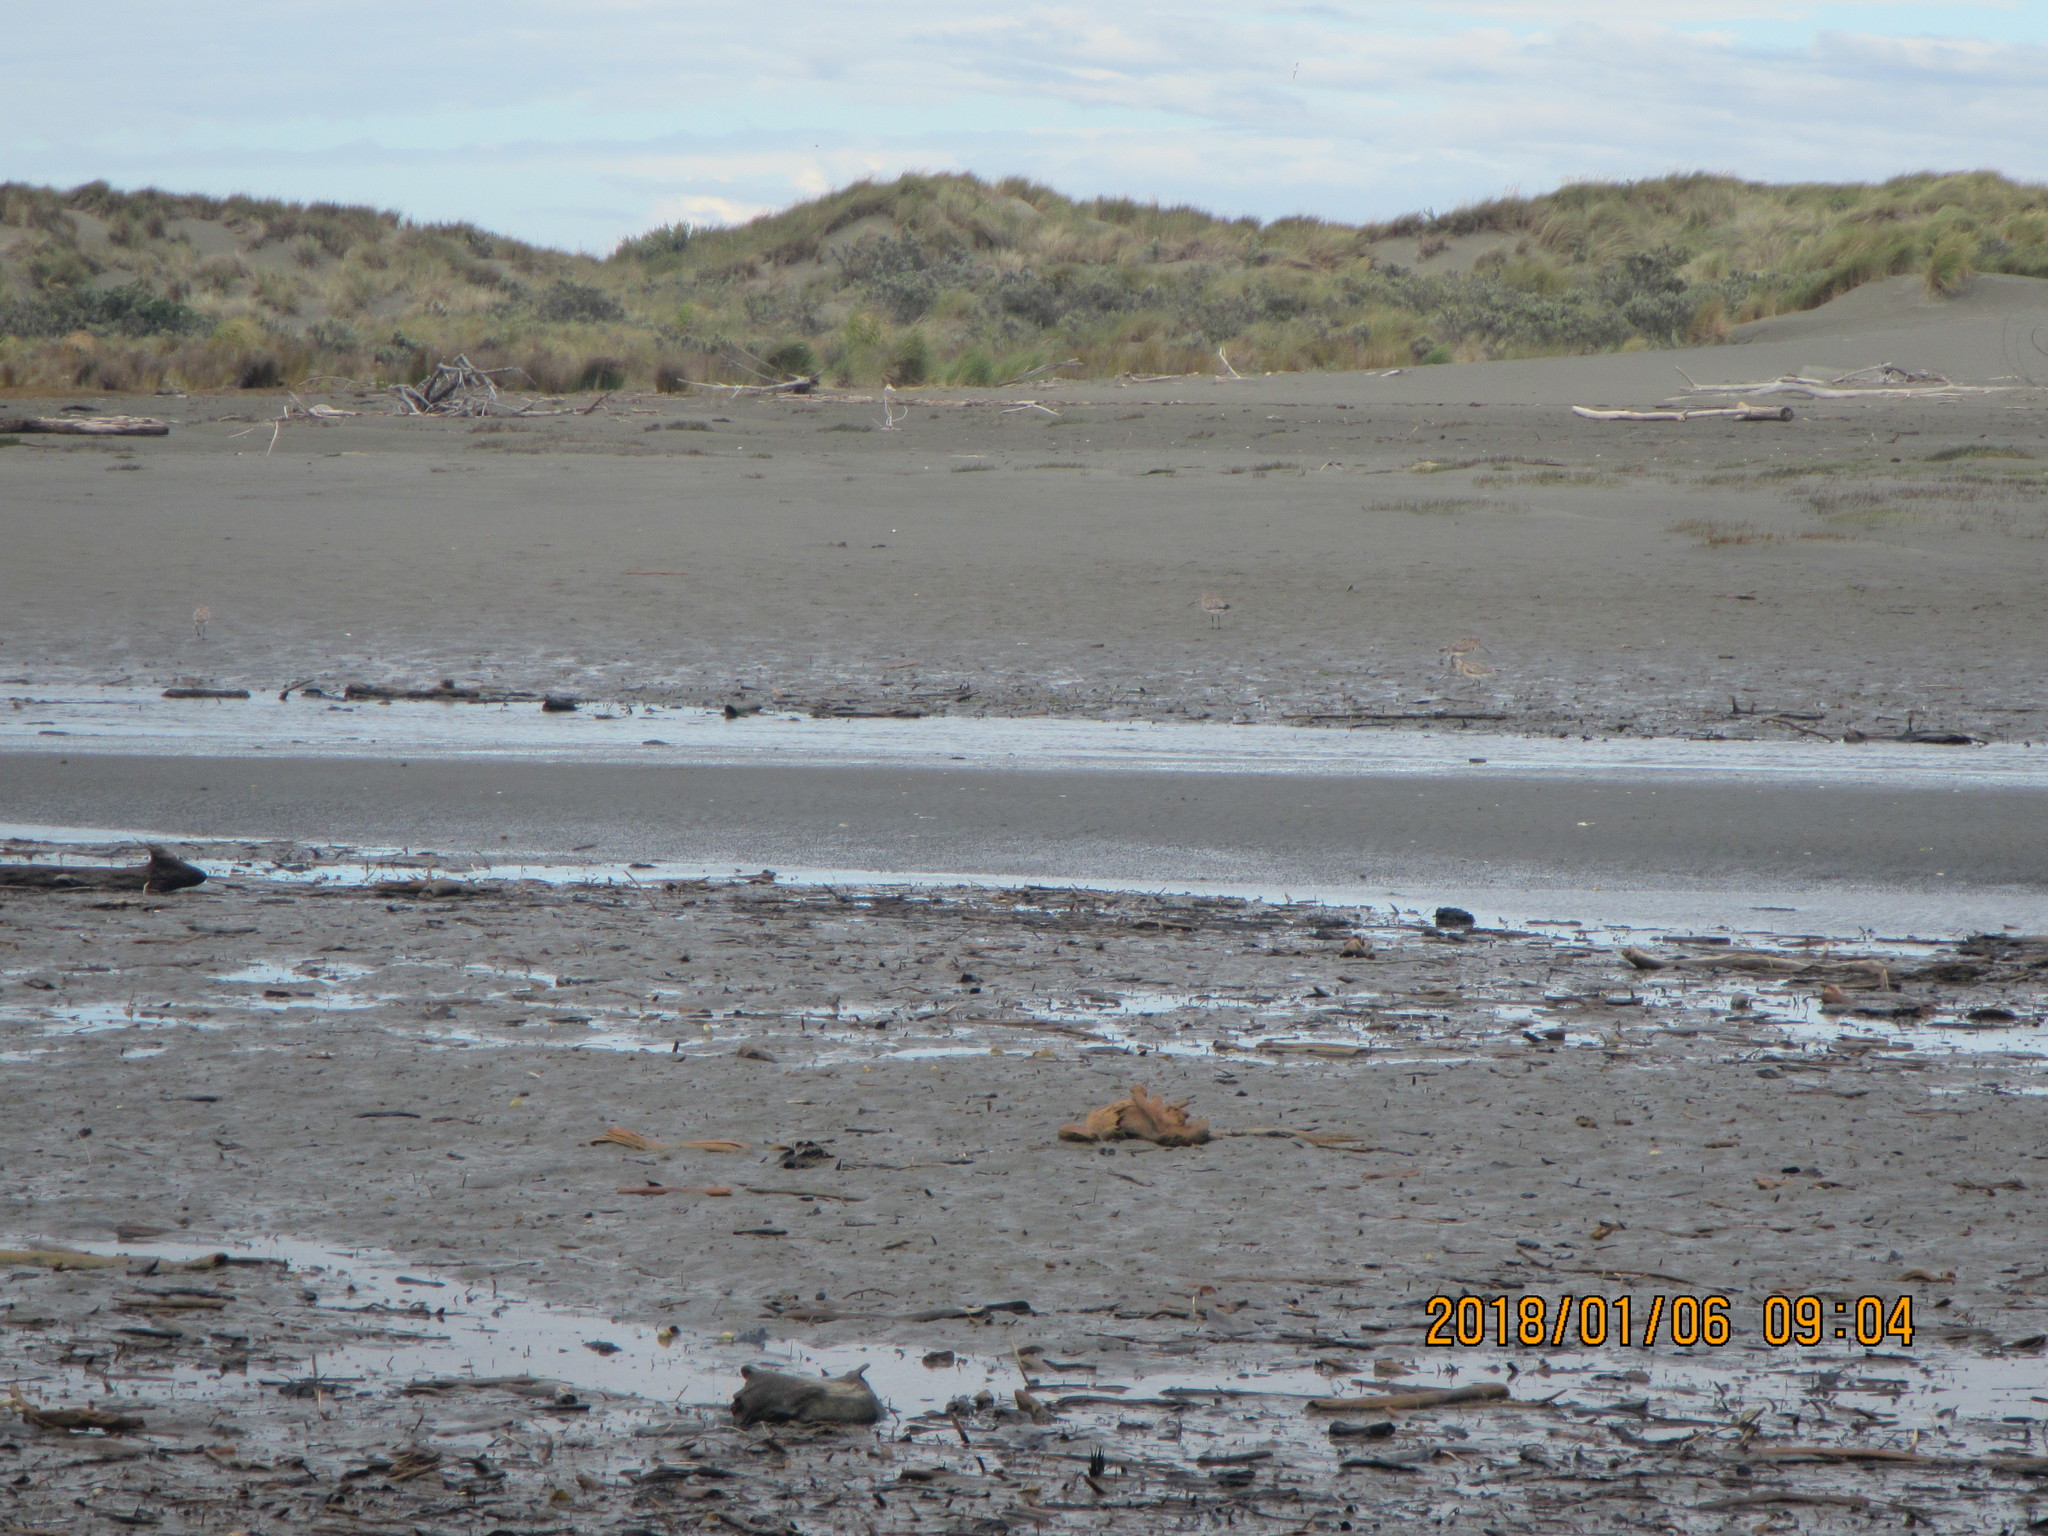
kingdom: Animalia
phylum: Chordata
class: Aves
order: Charadriiformes
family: Scolopacidae
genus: Limosa
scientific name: Limosa lapponica
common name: Bar-tailed godwit
